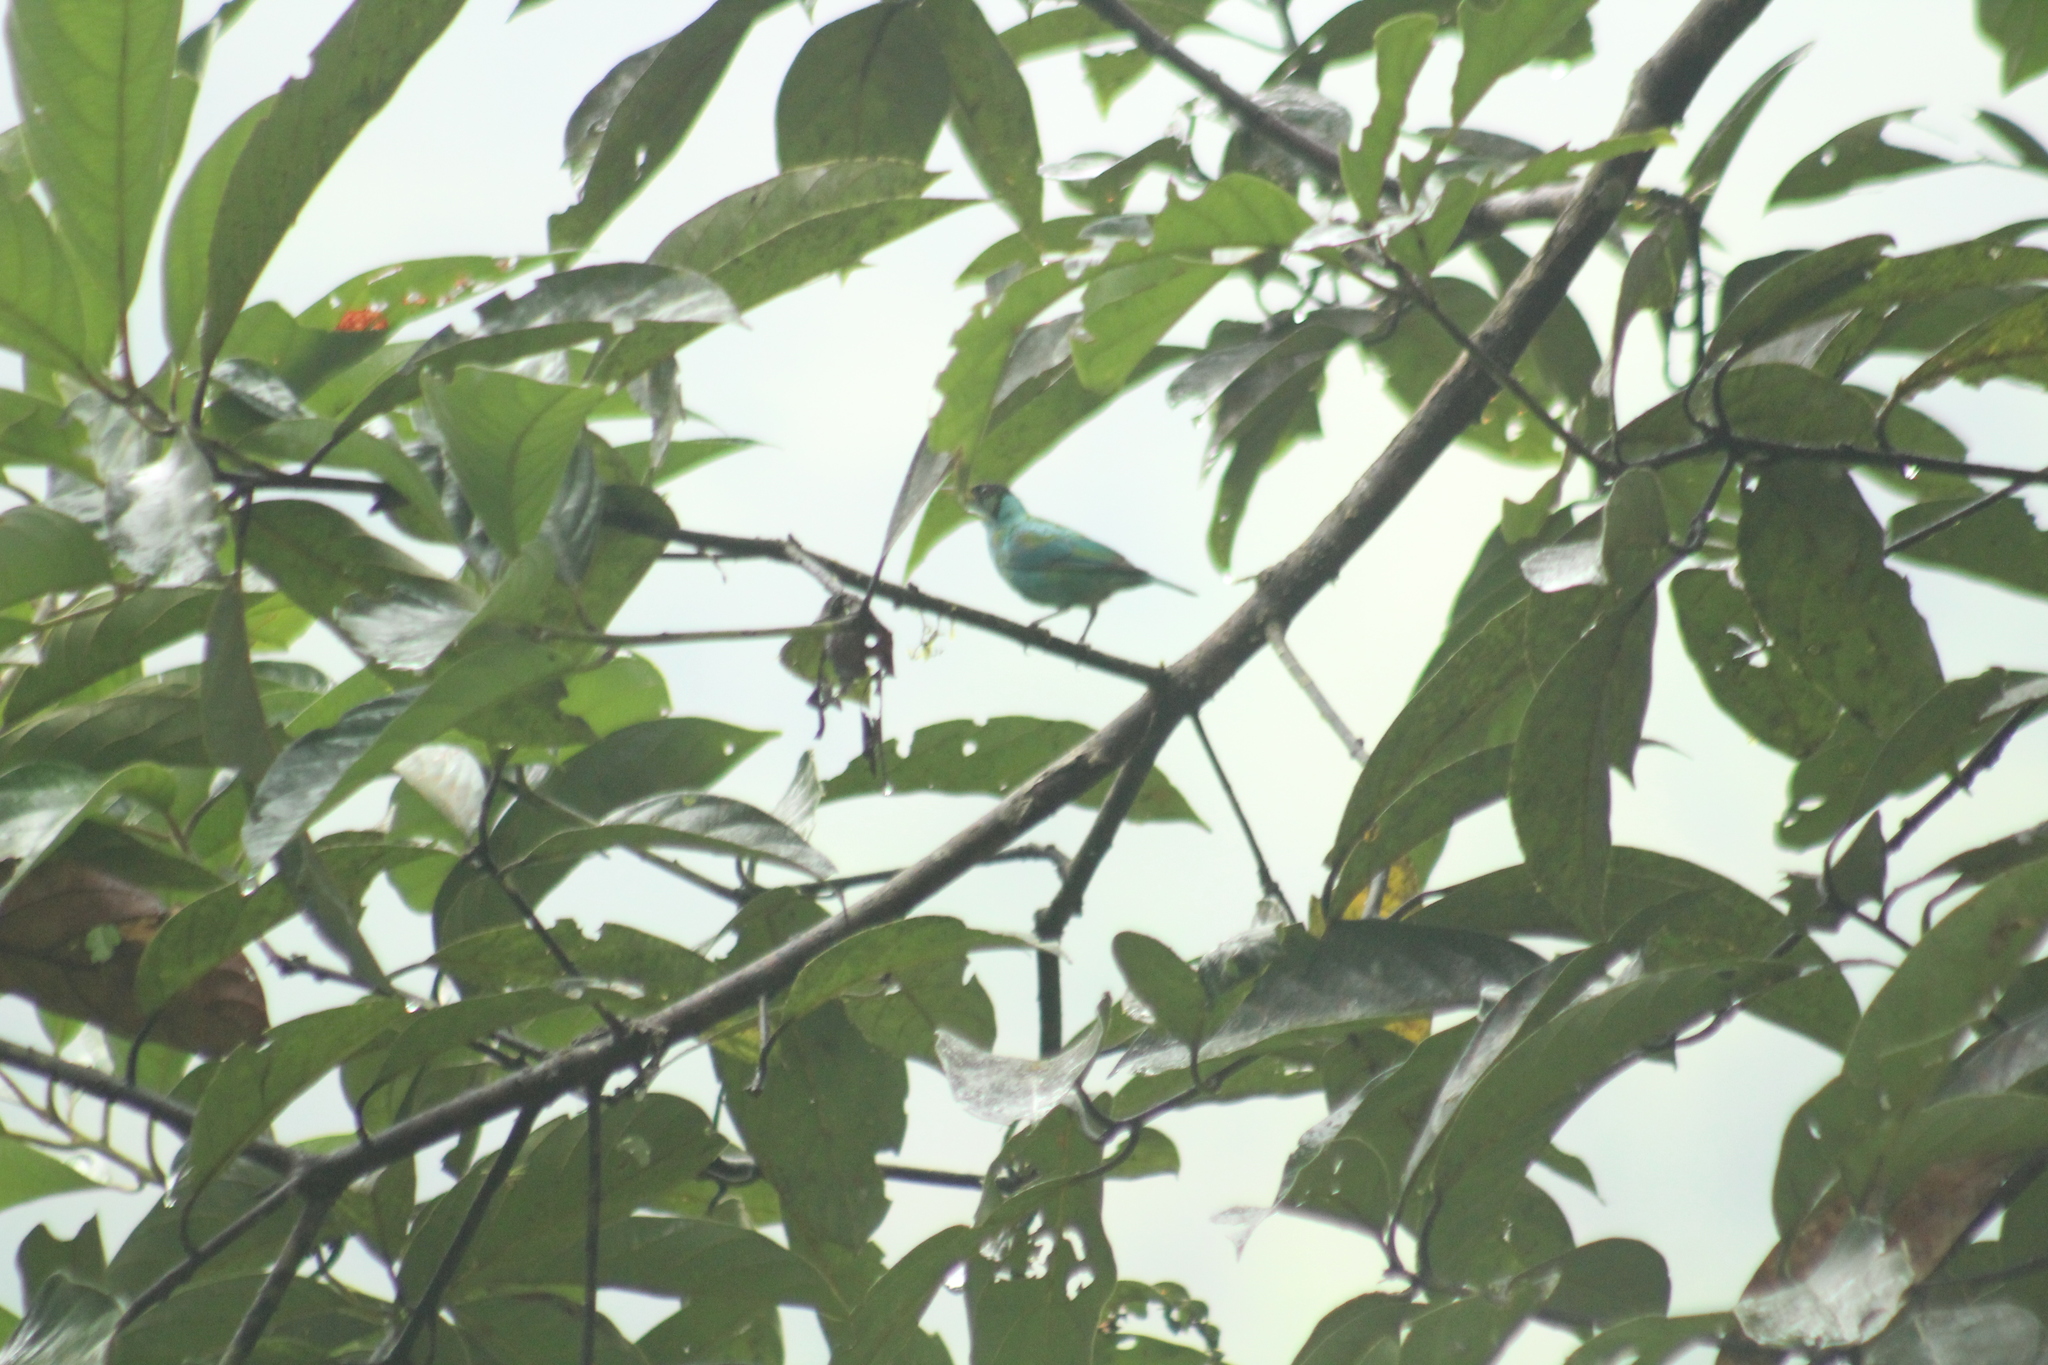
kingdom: Animalia
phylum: Chordata
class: Aves
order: Passeriformes
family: Thraupidae
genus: Chlorophanes
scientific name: Chlorophanes spiza
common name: Green honeycreeper
